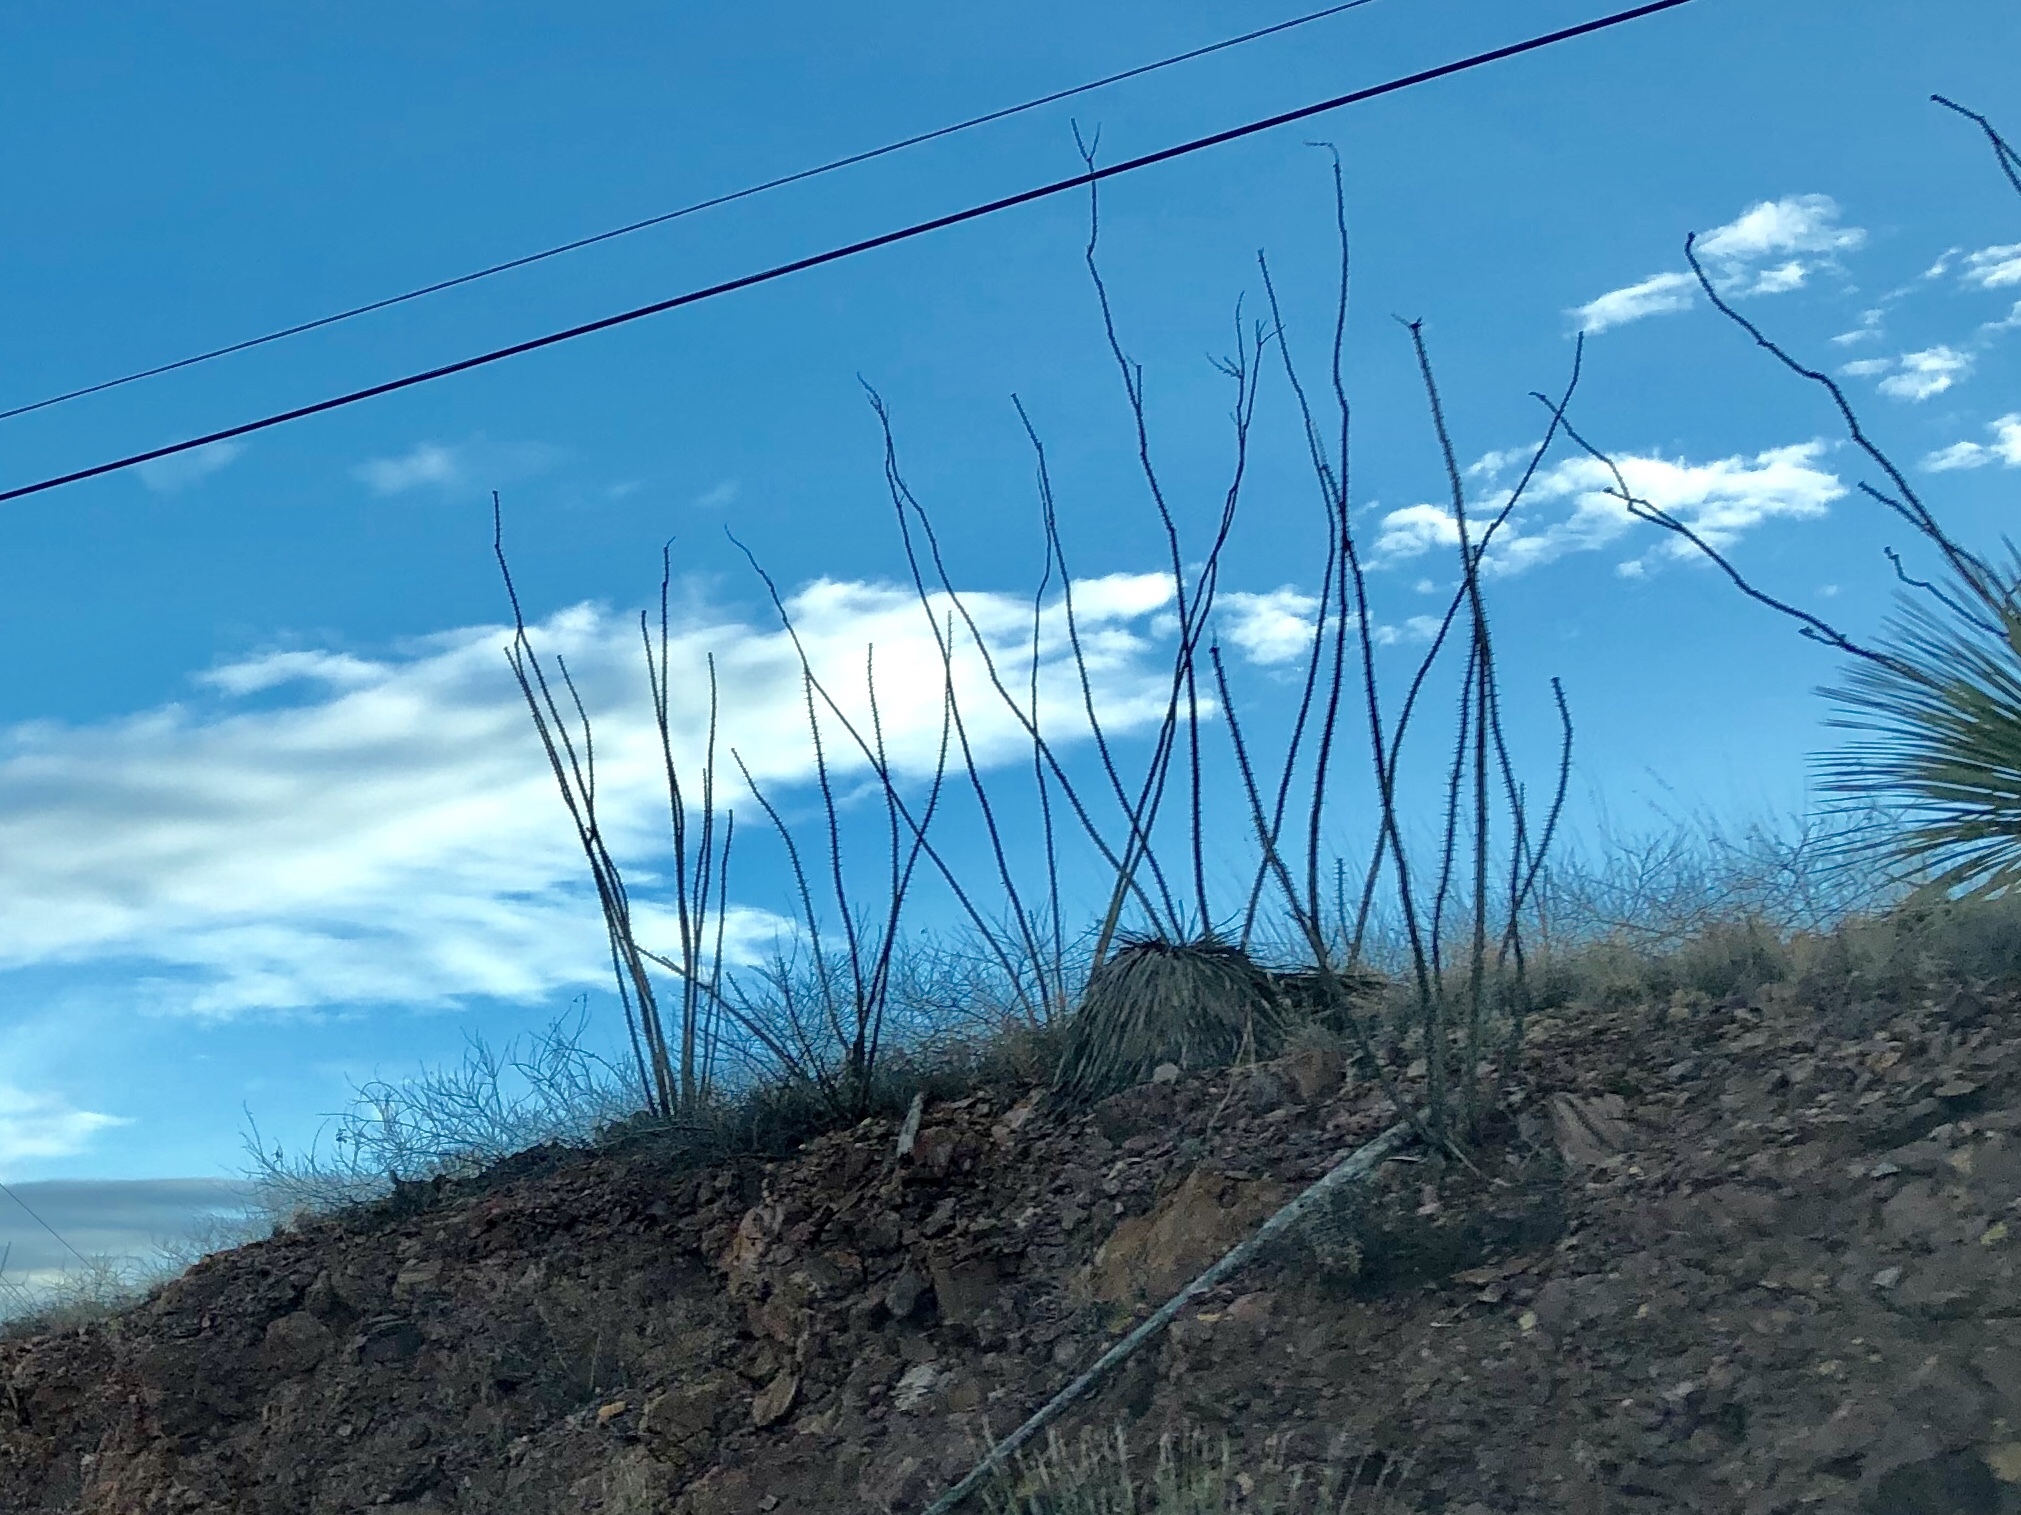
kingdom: Plantae
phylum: Tracheophyta
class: Magnoliopsida
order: Ericales
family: Fouquieriaceae
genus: Fouquieria
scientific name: Fouquieria splendens
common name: Vine-cactus
